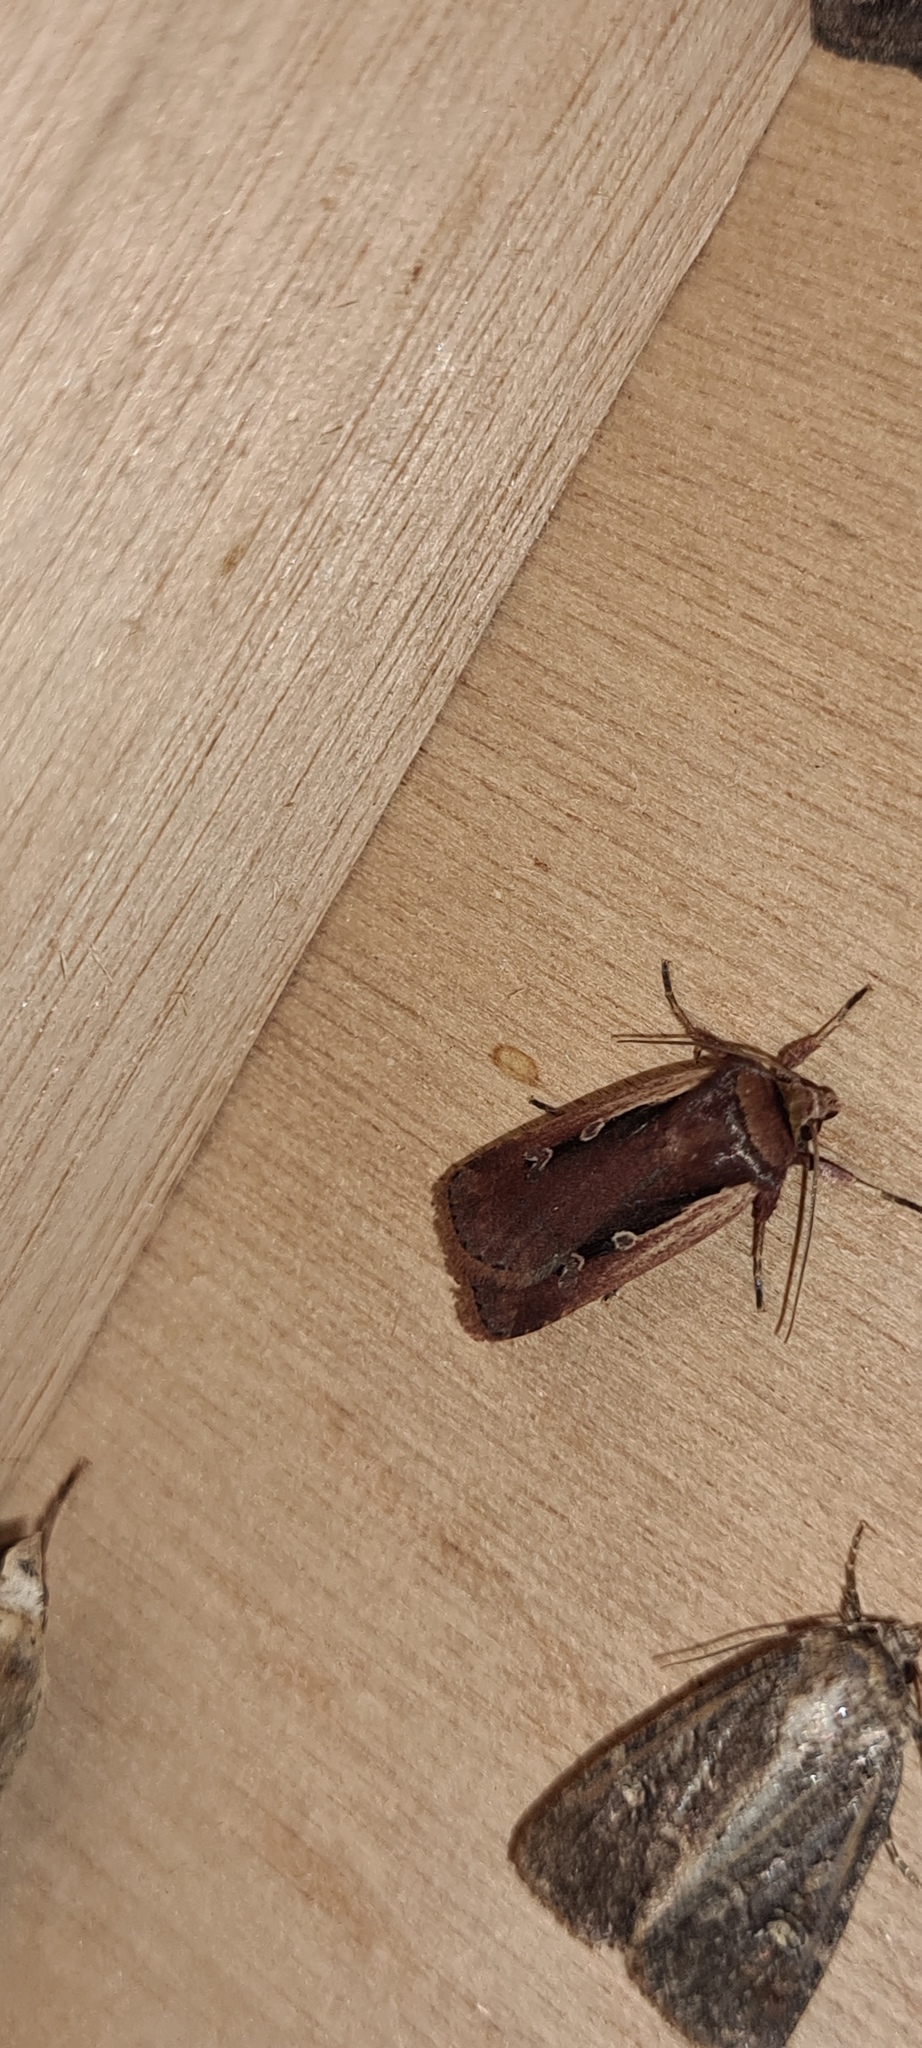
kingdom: Animalia
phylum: Arthropoda
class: Insecta
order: Lepidoptera
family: Noctuidae
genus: Ochropleura
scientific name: Ochropleura plecta
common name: Flame shoulder
